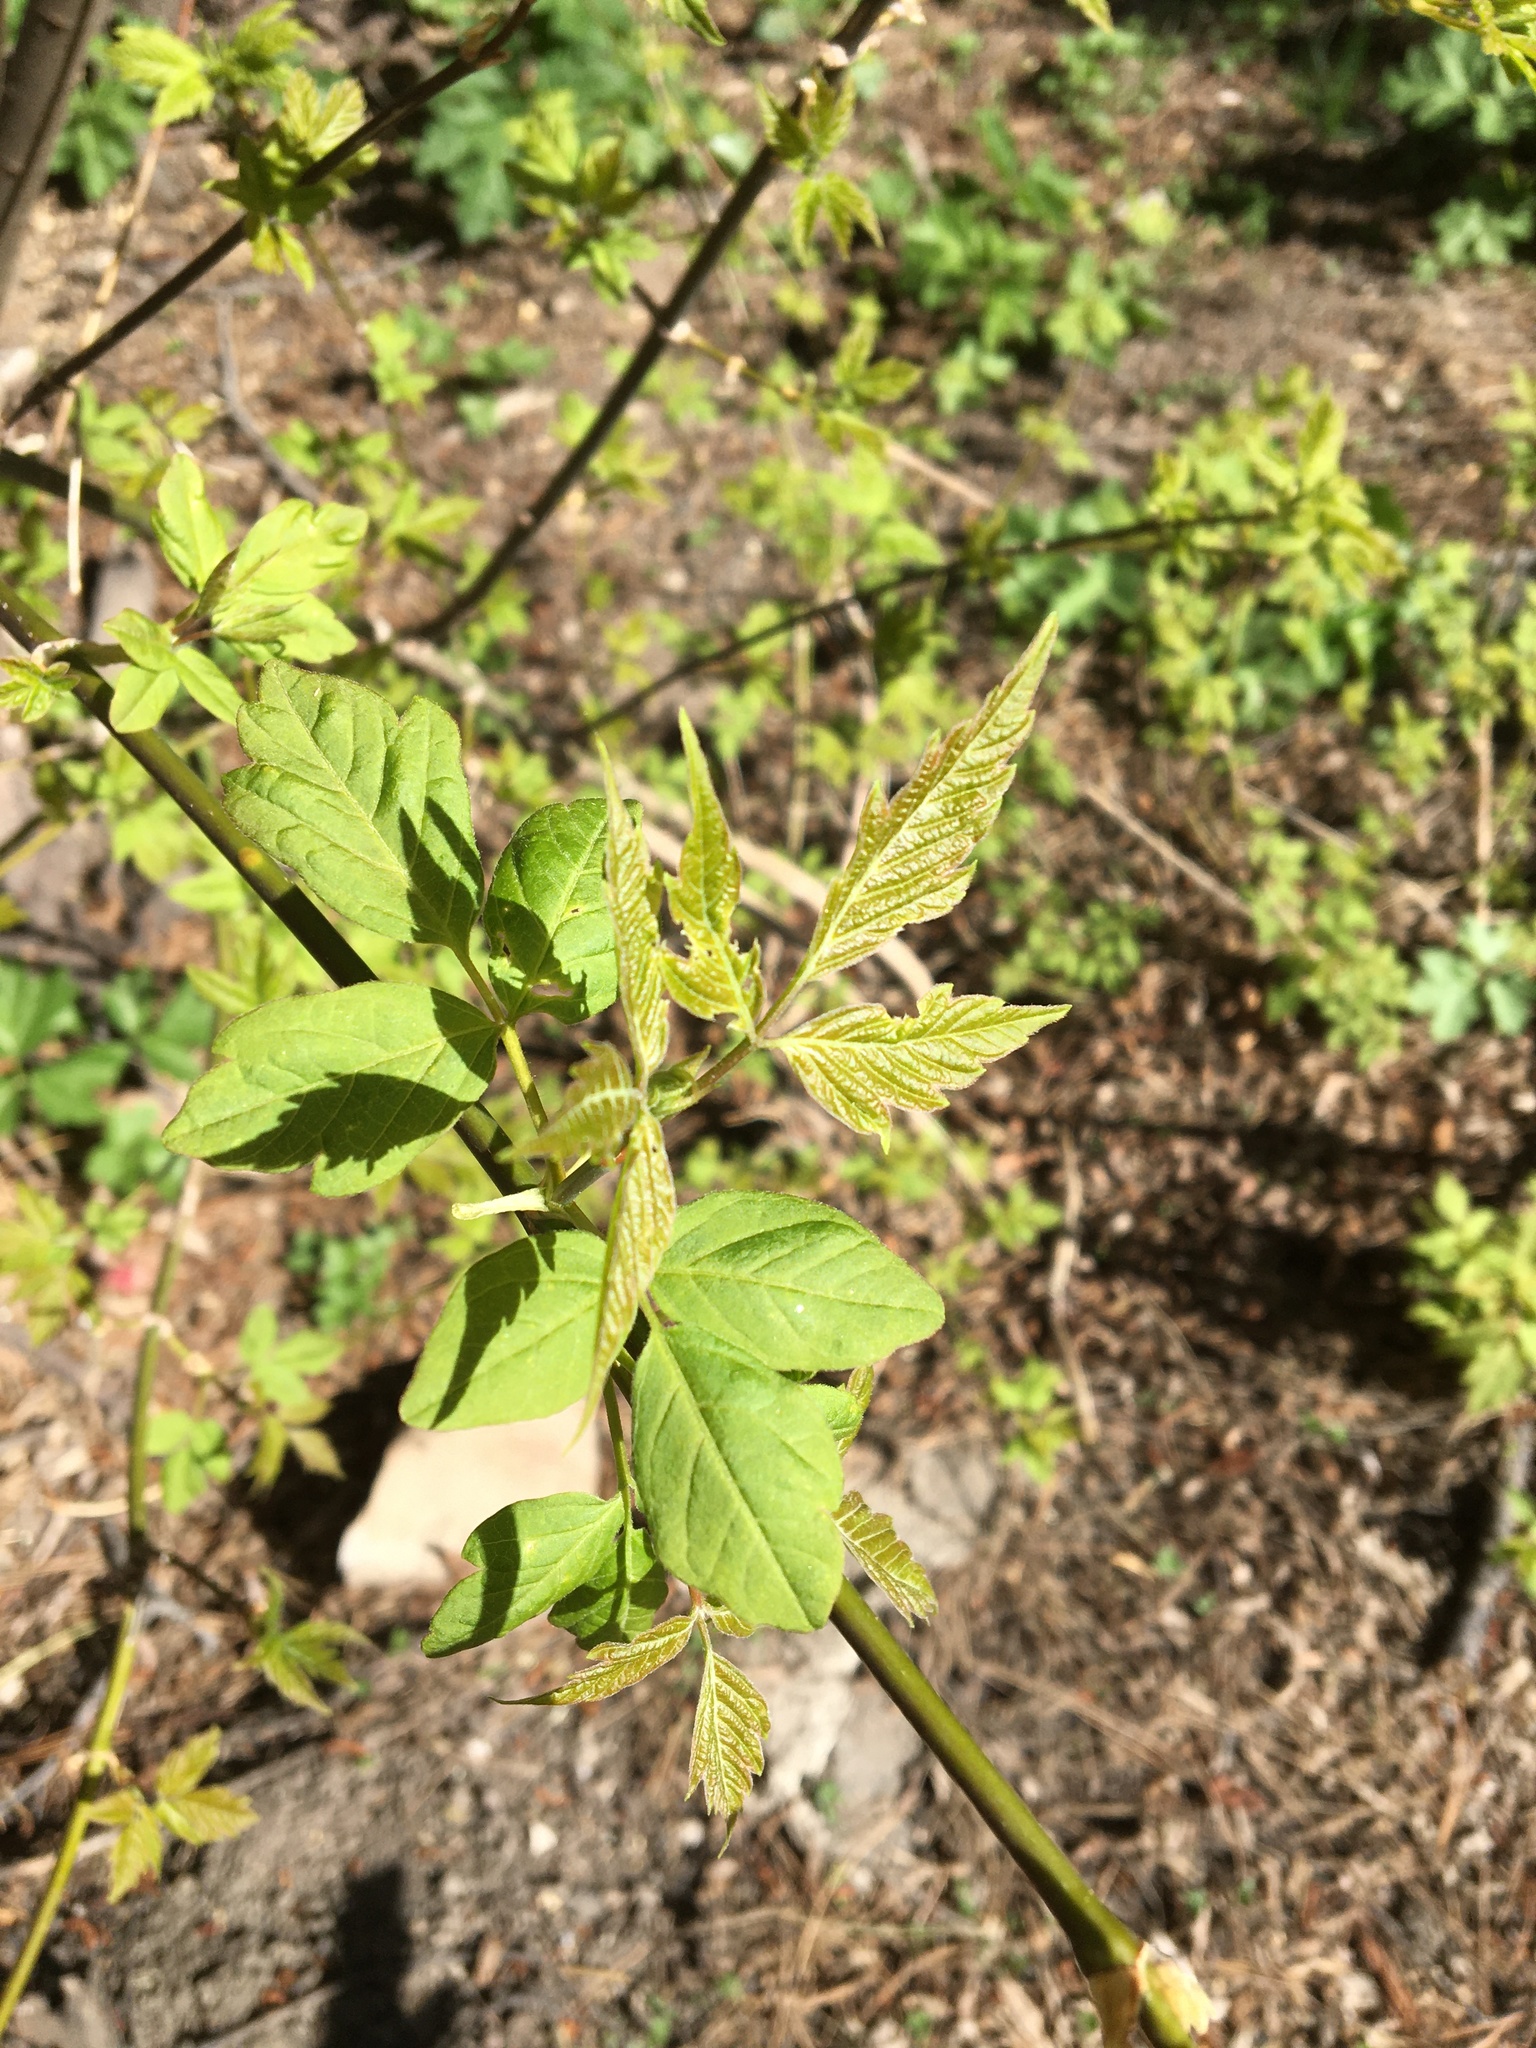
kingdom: Plantae
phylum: Tracheophyta
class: Magnoliopsida
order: Sapindales
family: Sapindaceae
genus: Acer
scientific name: Acer negundo
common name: Ashleaf maple
